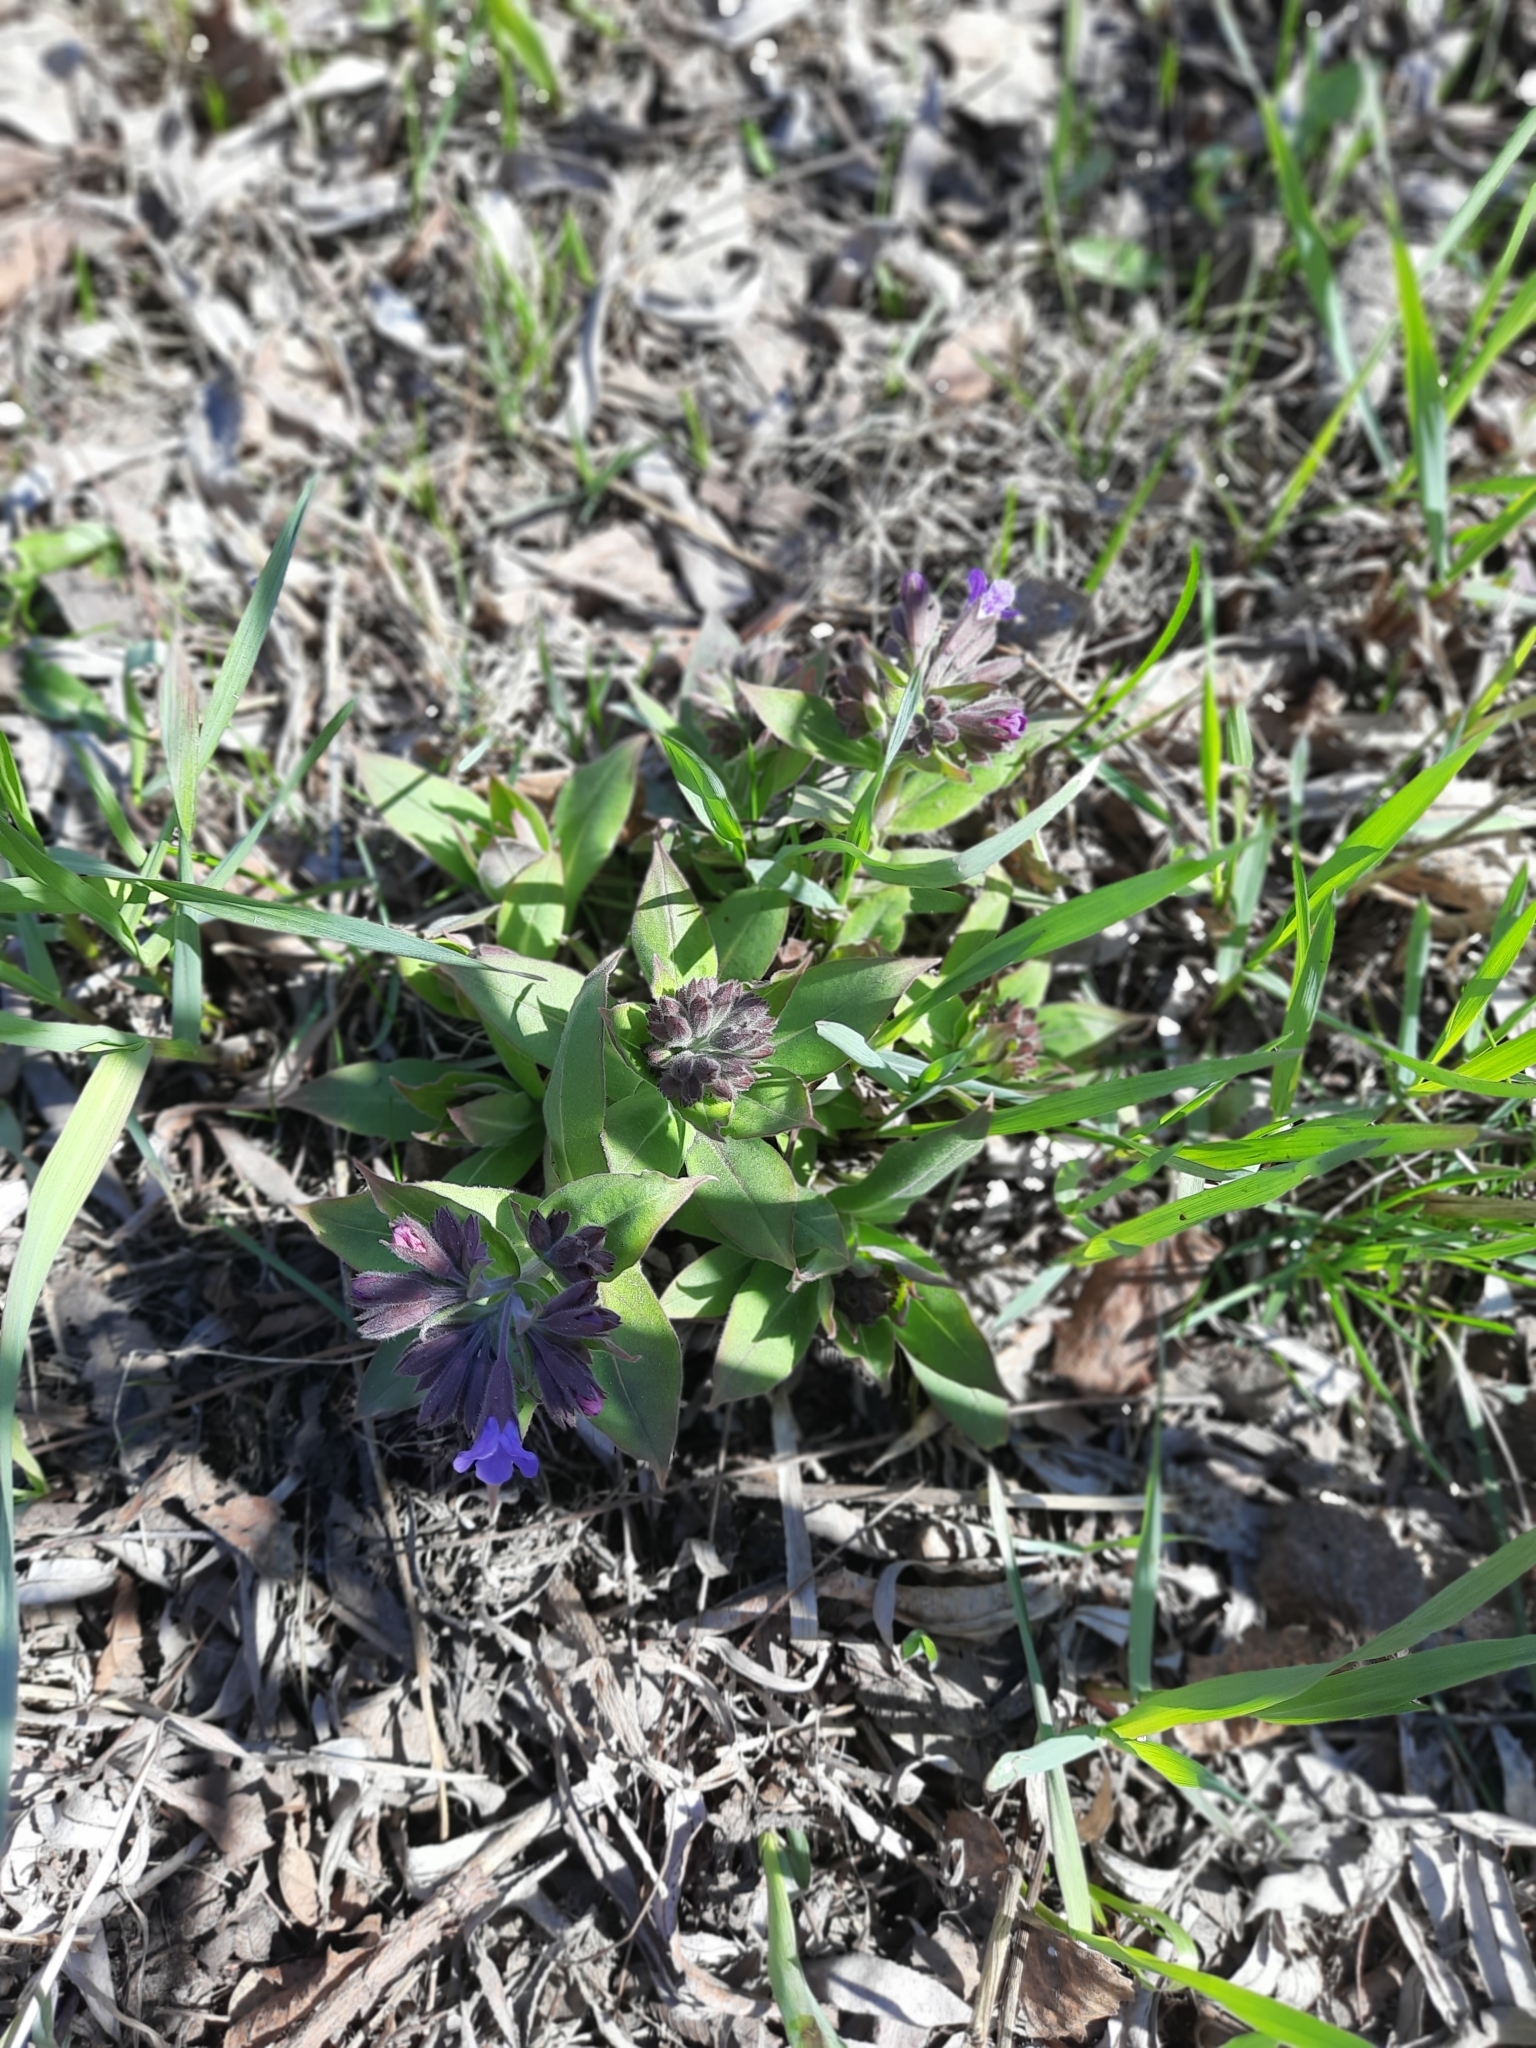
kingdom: Plantae
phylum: Tracheophyta
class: Magnoliopsida
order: Boraginales
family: Boraginaceae
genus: Pulmonaria
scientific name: Pulmonaria mollis
